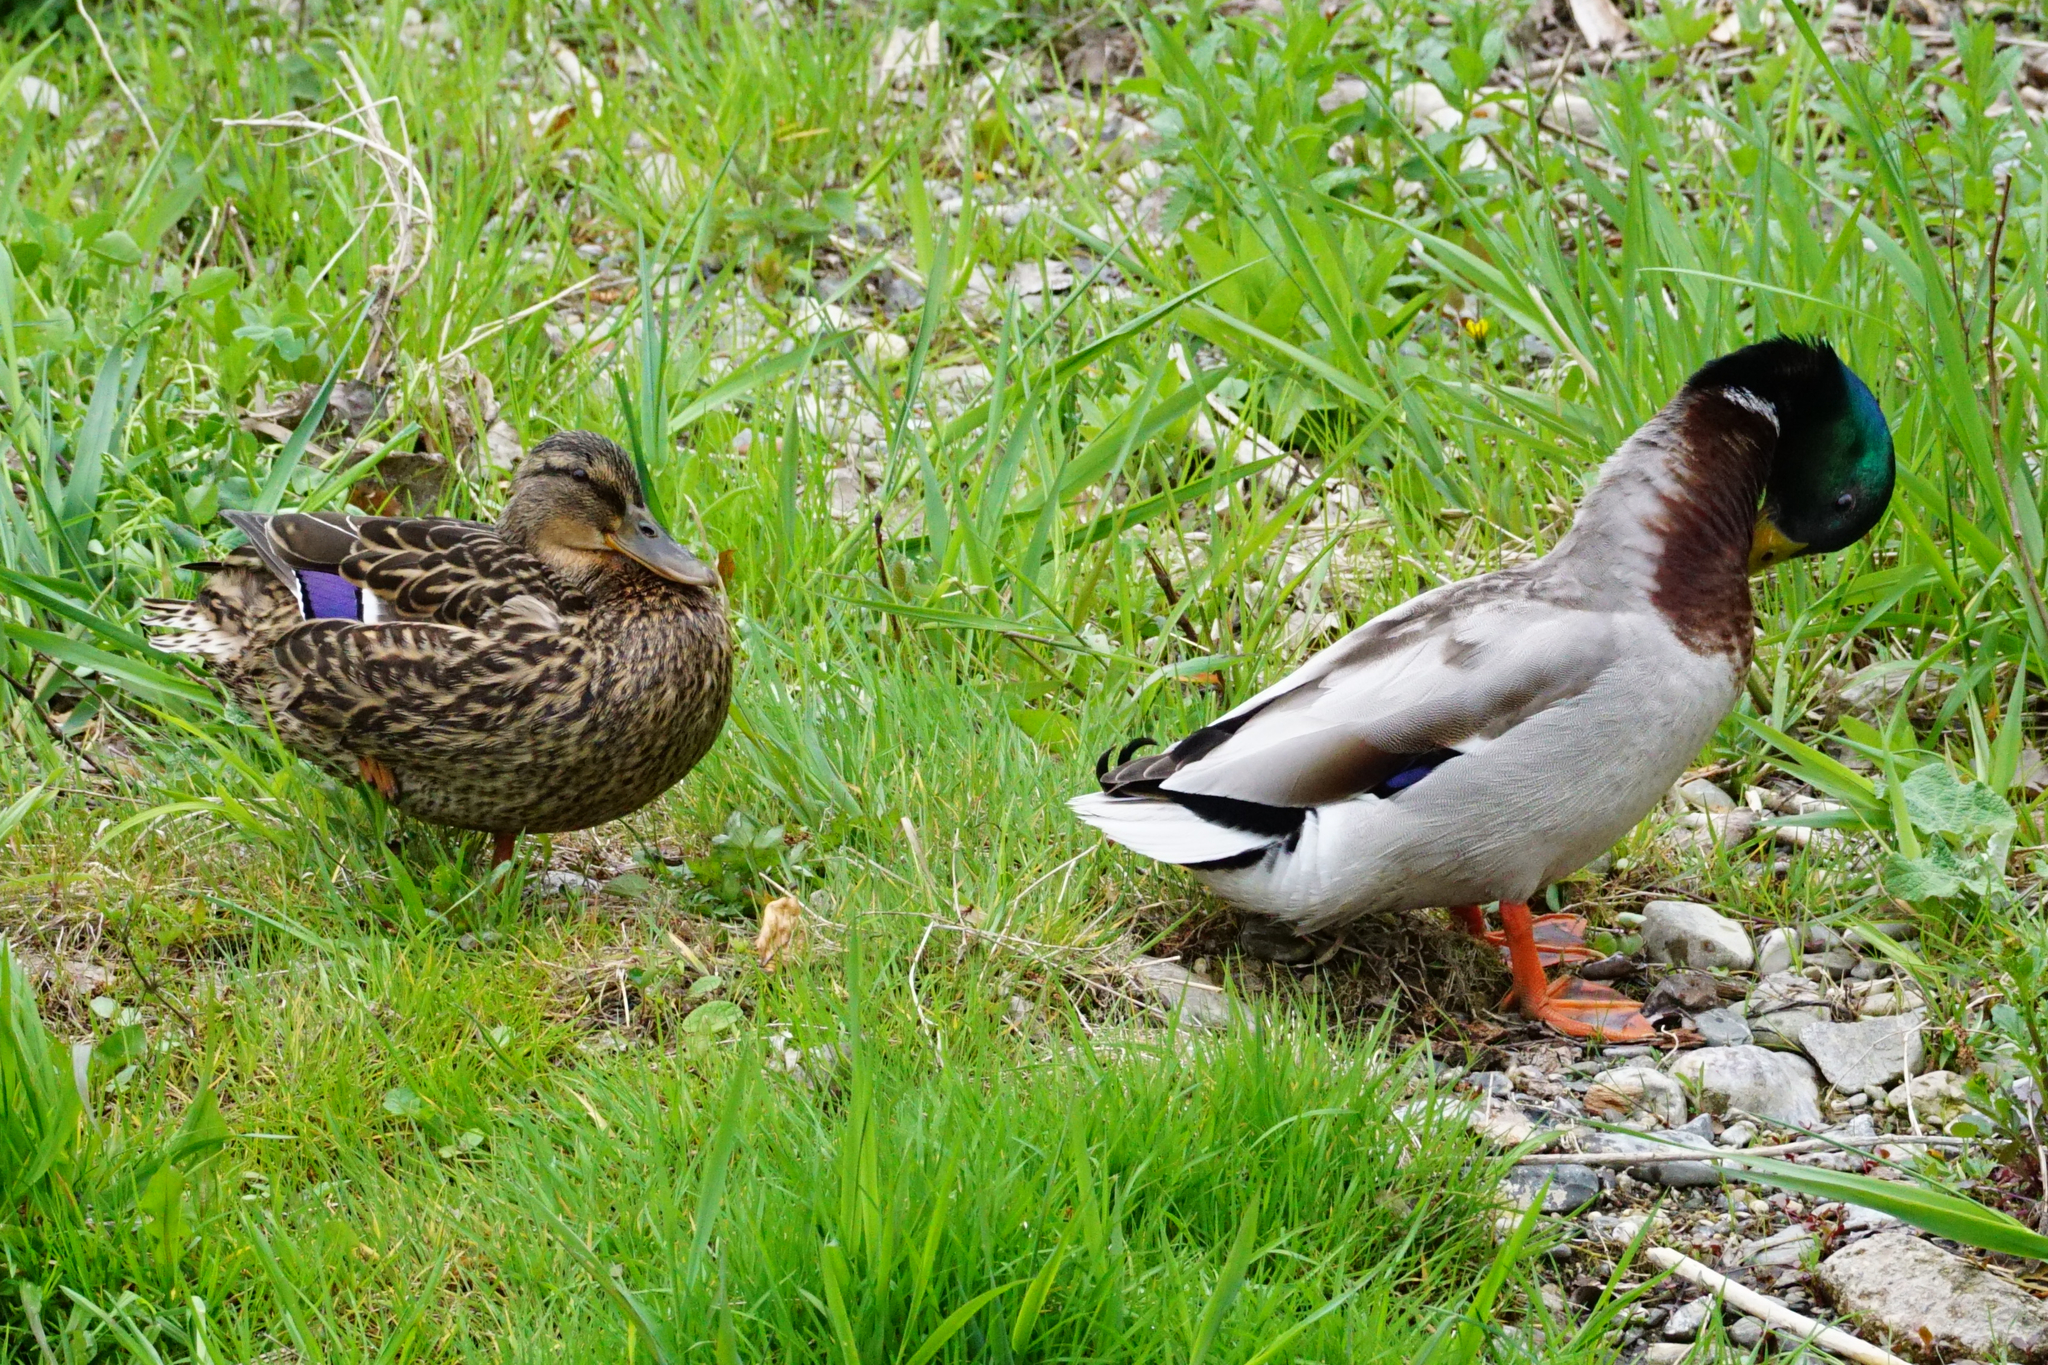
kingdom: Animalia
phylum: Chordata
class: Aves
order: Anseriformes
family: Anatidae
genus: Anas
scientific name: Anas platyrhynchos
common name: Mallard
